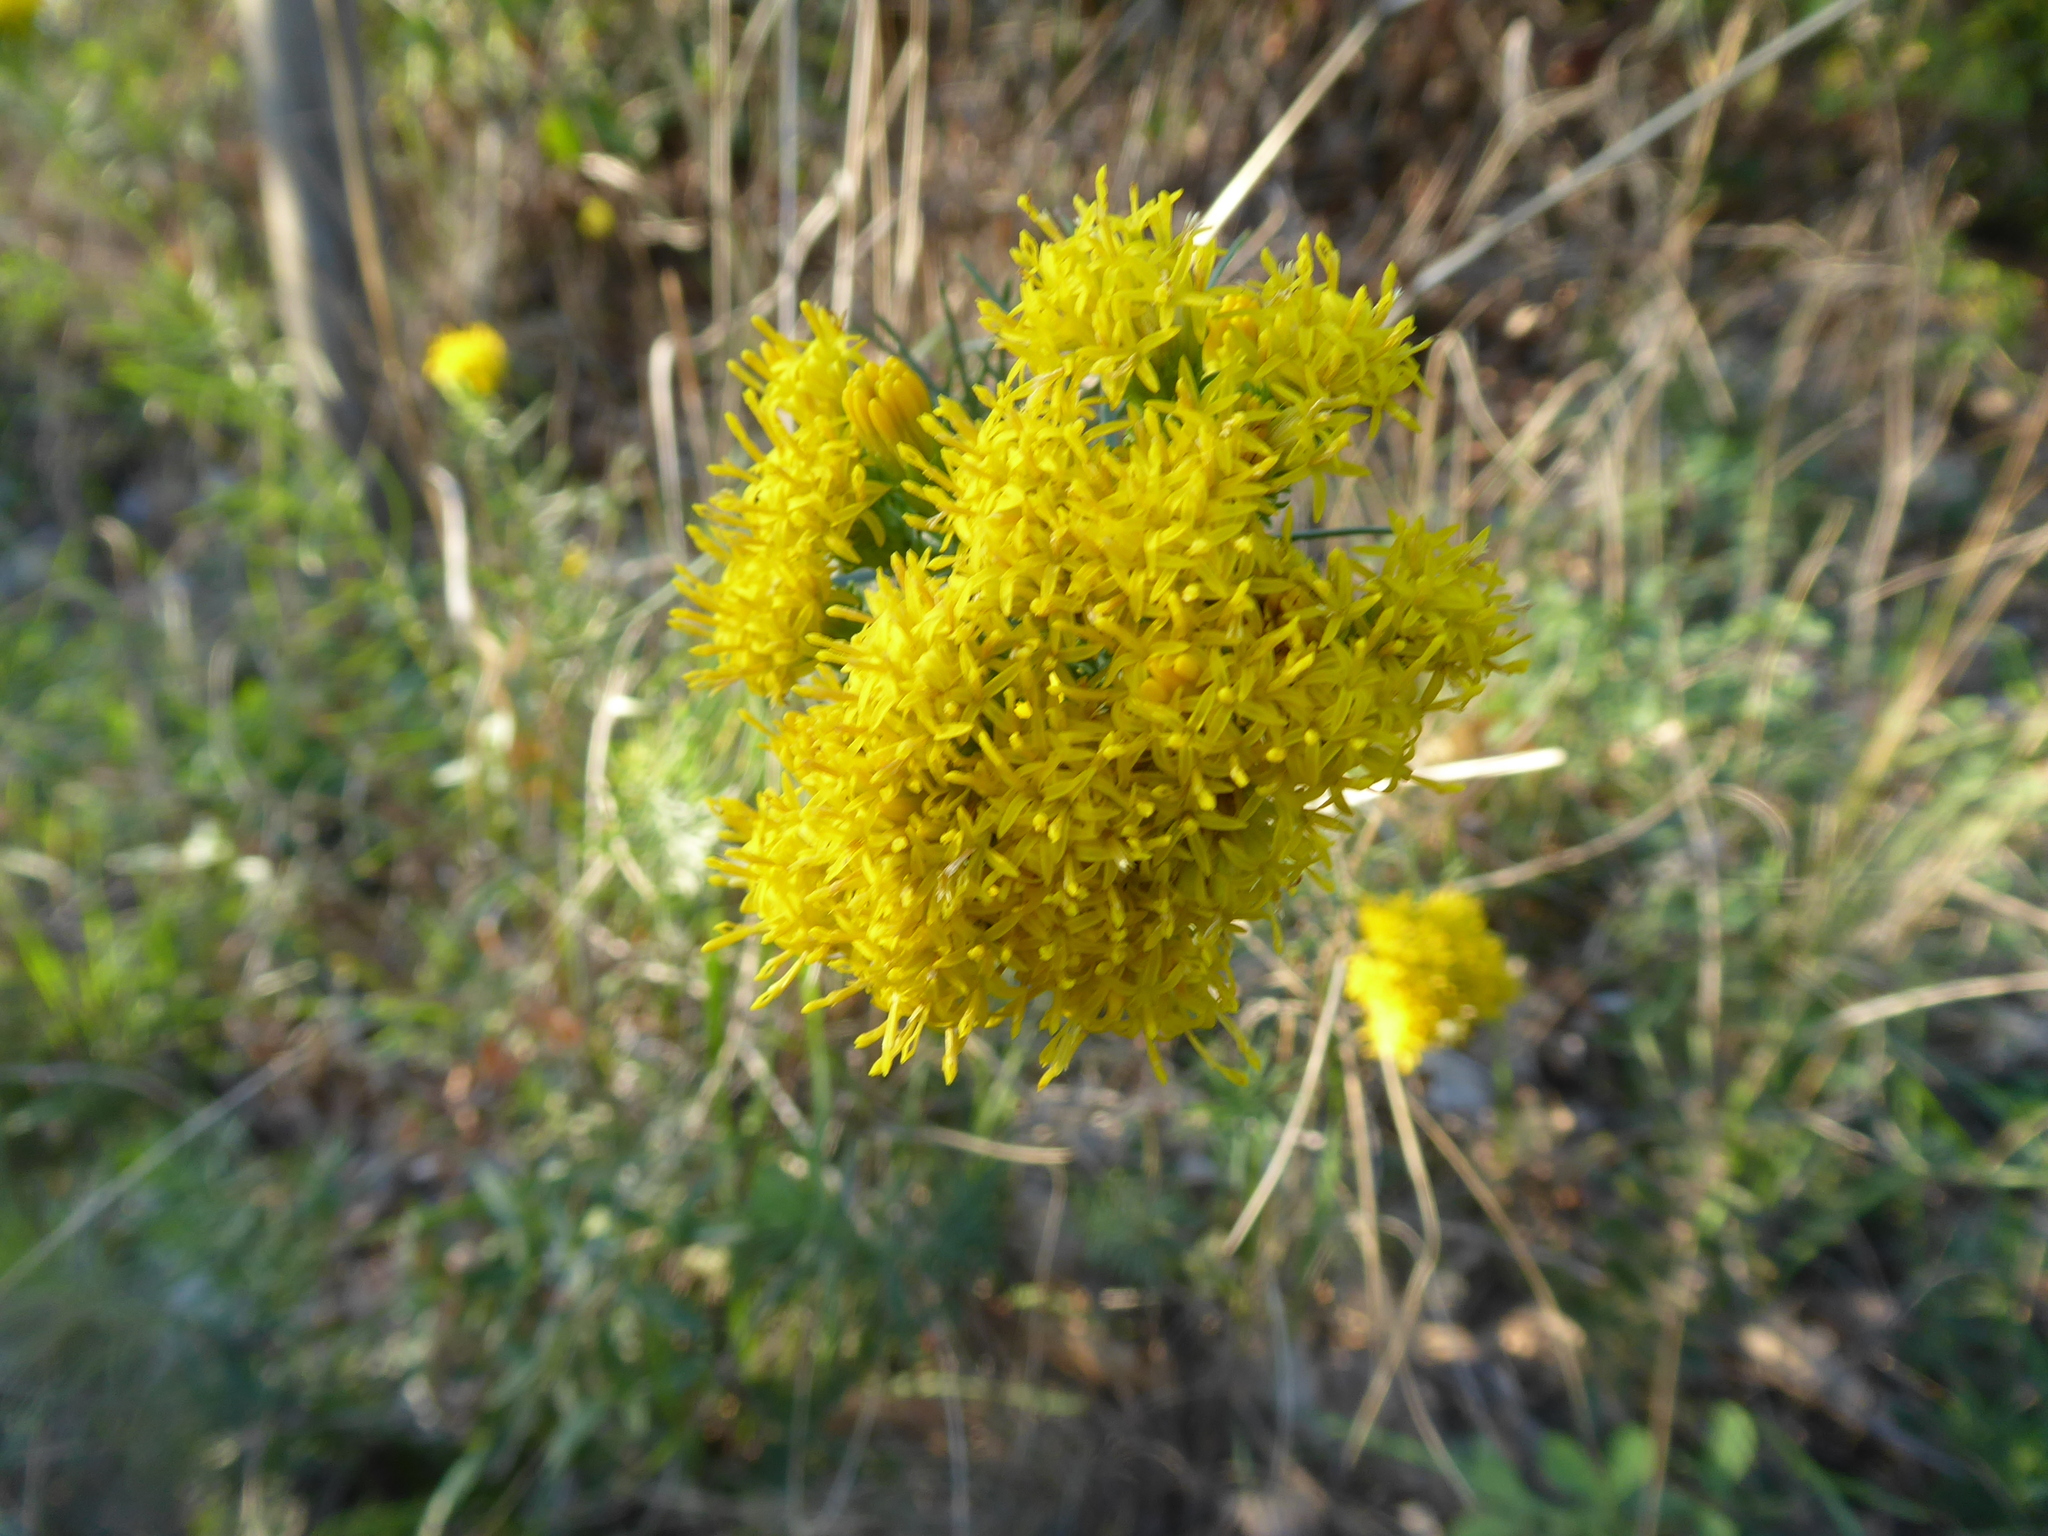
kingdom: Plantae
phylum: Tracheophyta
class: Magnoliopsida
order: Asterales
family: Asteraceae
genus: Galatella
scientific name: Galatella linosyris
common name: Goldilocks aster
